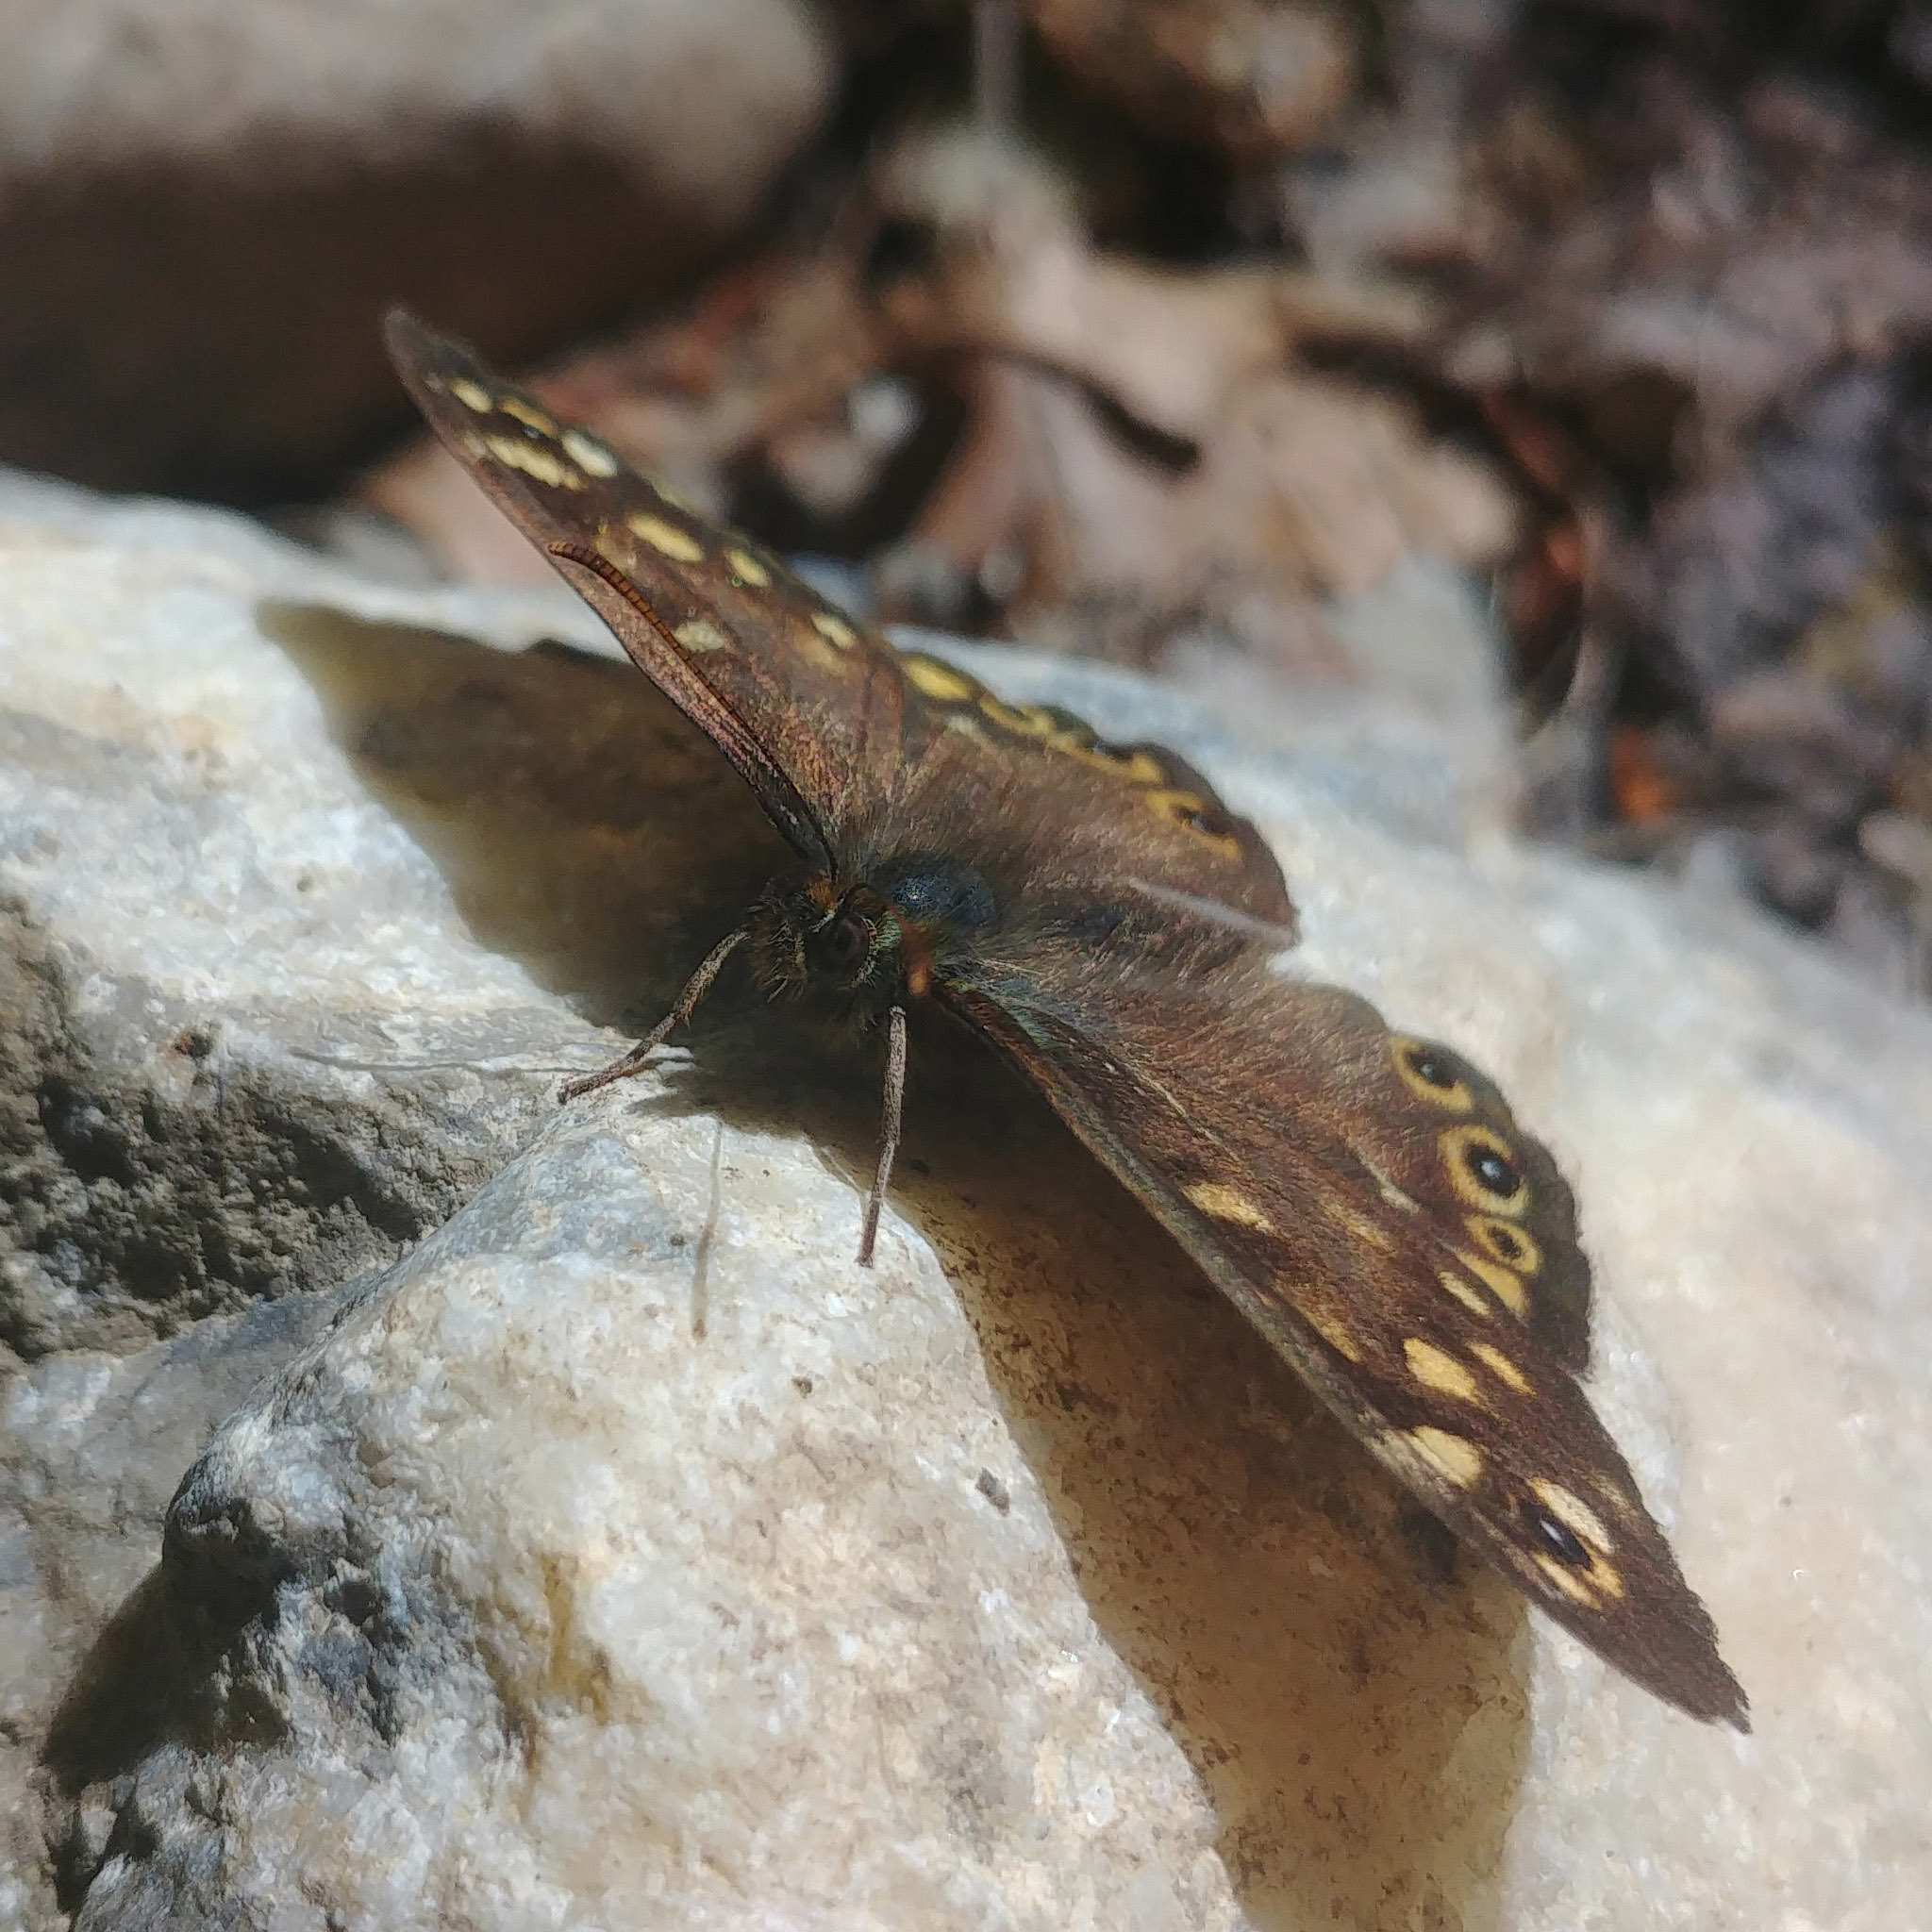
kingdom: Animalia
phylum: Arthropoda
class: Insecta
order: Lepidoptera
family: Nymphalidae
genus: Pararge
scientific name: Pararge aegeria
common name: Speckled wood
